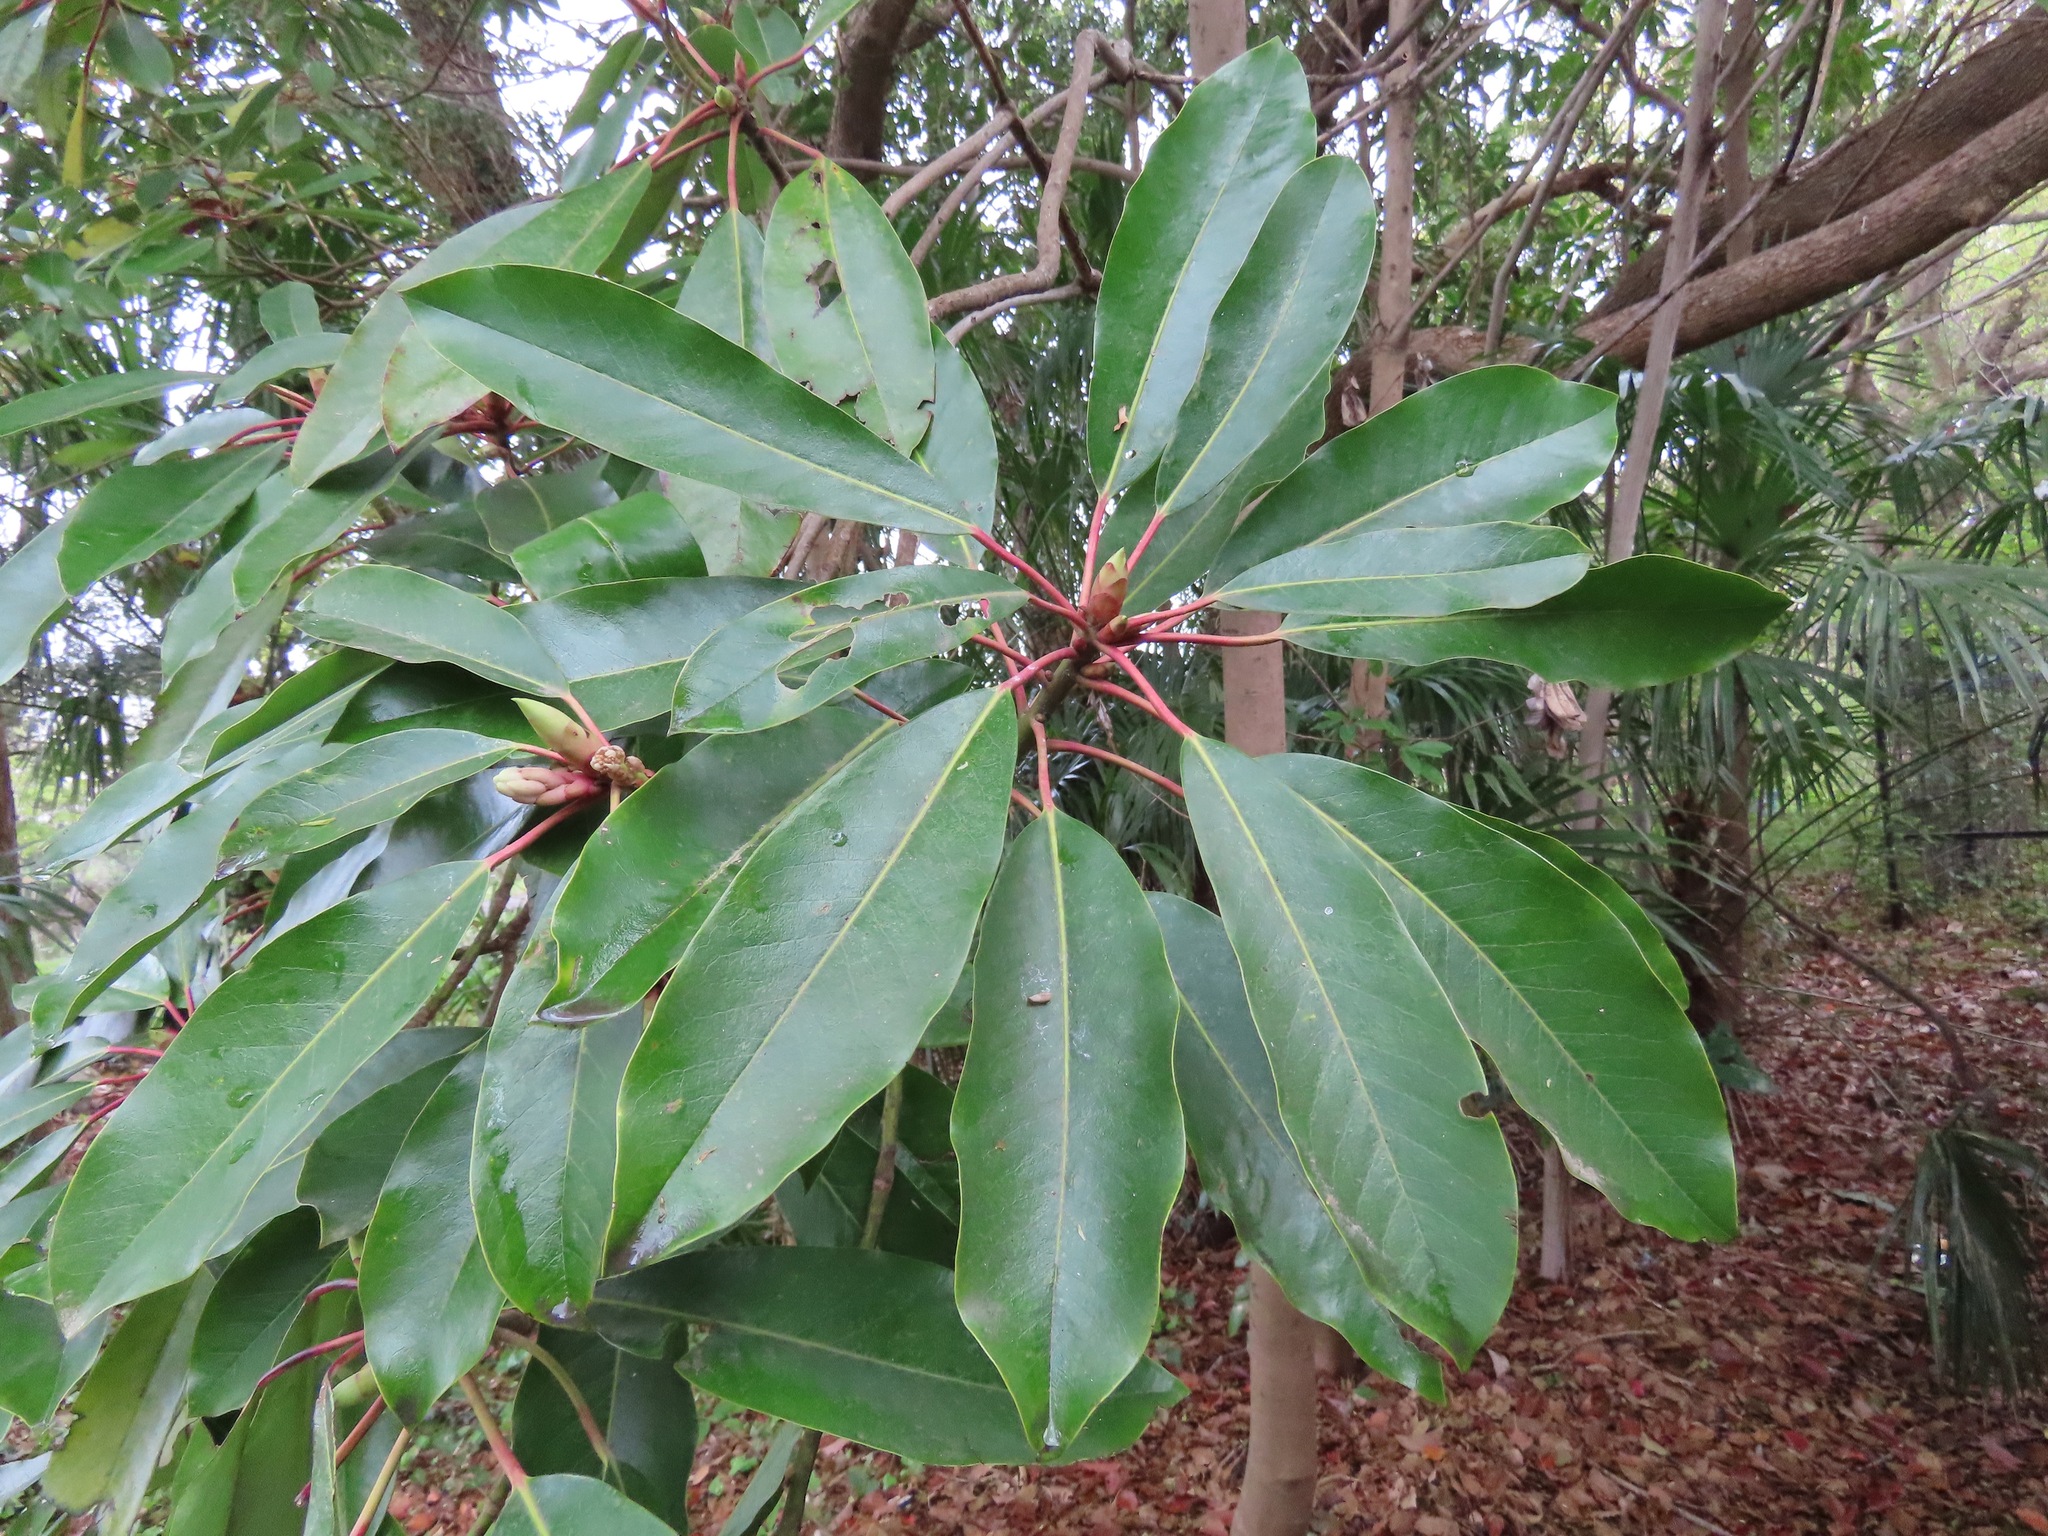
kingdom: Plantae
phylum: Tracheophyta
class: Magnoliopsida
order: Saxifragales
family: Daphniphyllaceae
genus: Daphniphyllum
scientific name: Daphniphyllum macropodum
